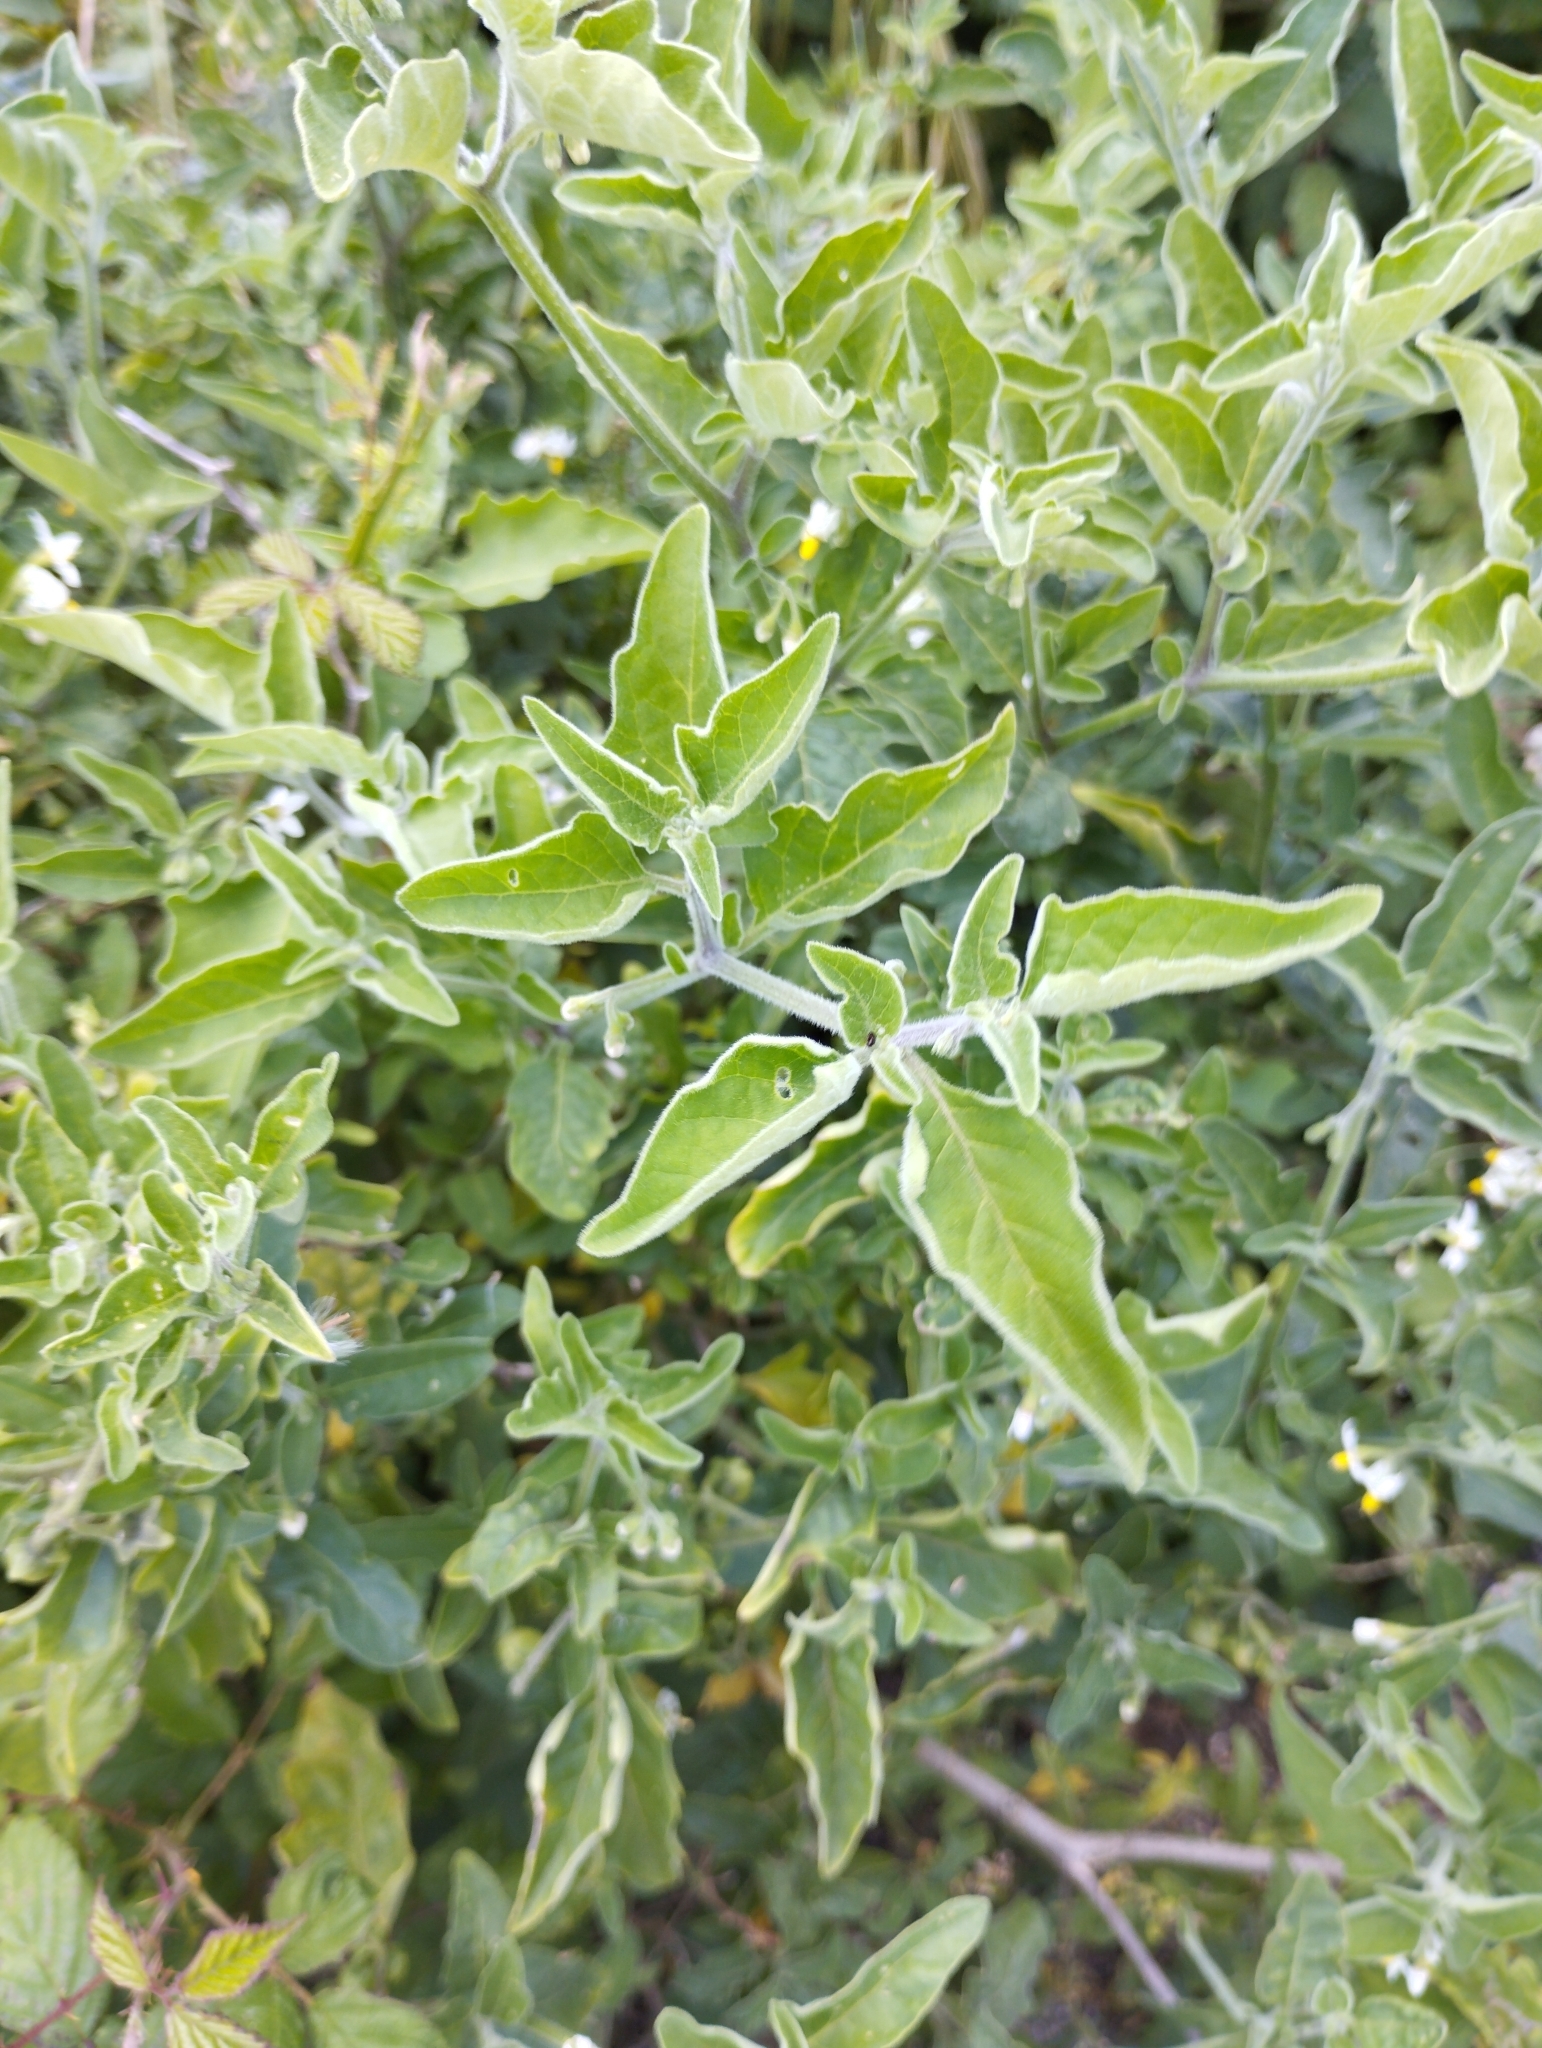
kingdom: Plantae
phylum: Tracheophyta
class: Magnoliopsida
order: Solanales
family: Solanaceae
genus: Solanum
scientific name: Solanum chenopodioides
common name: Tall nightshade
